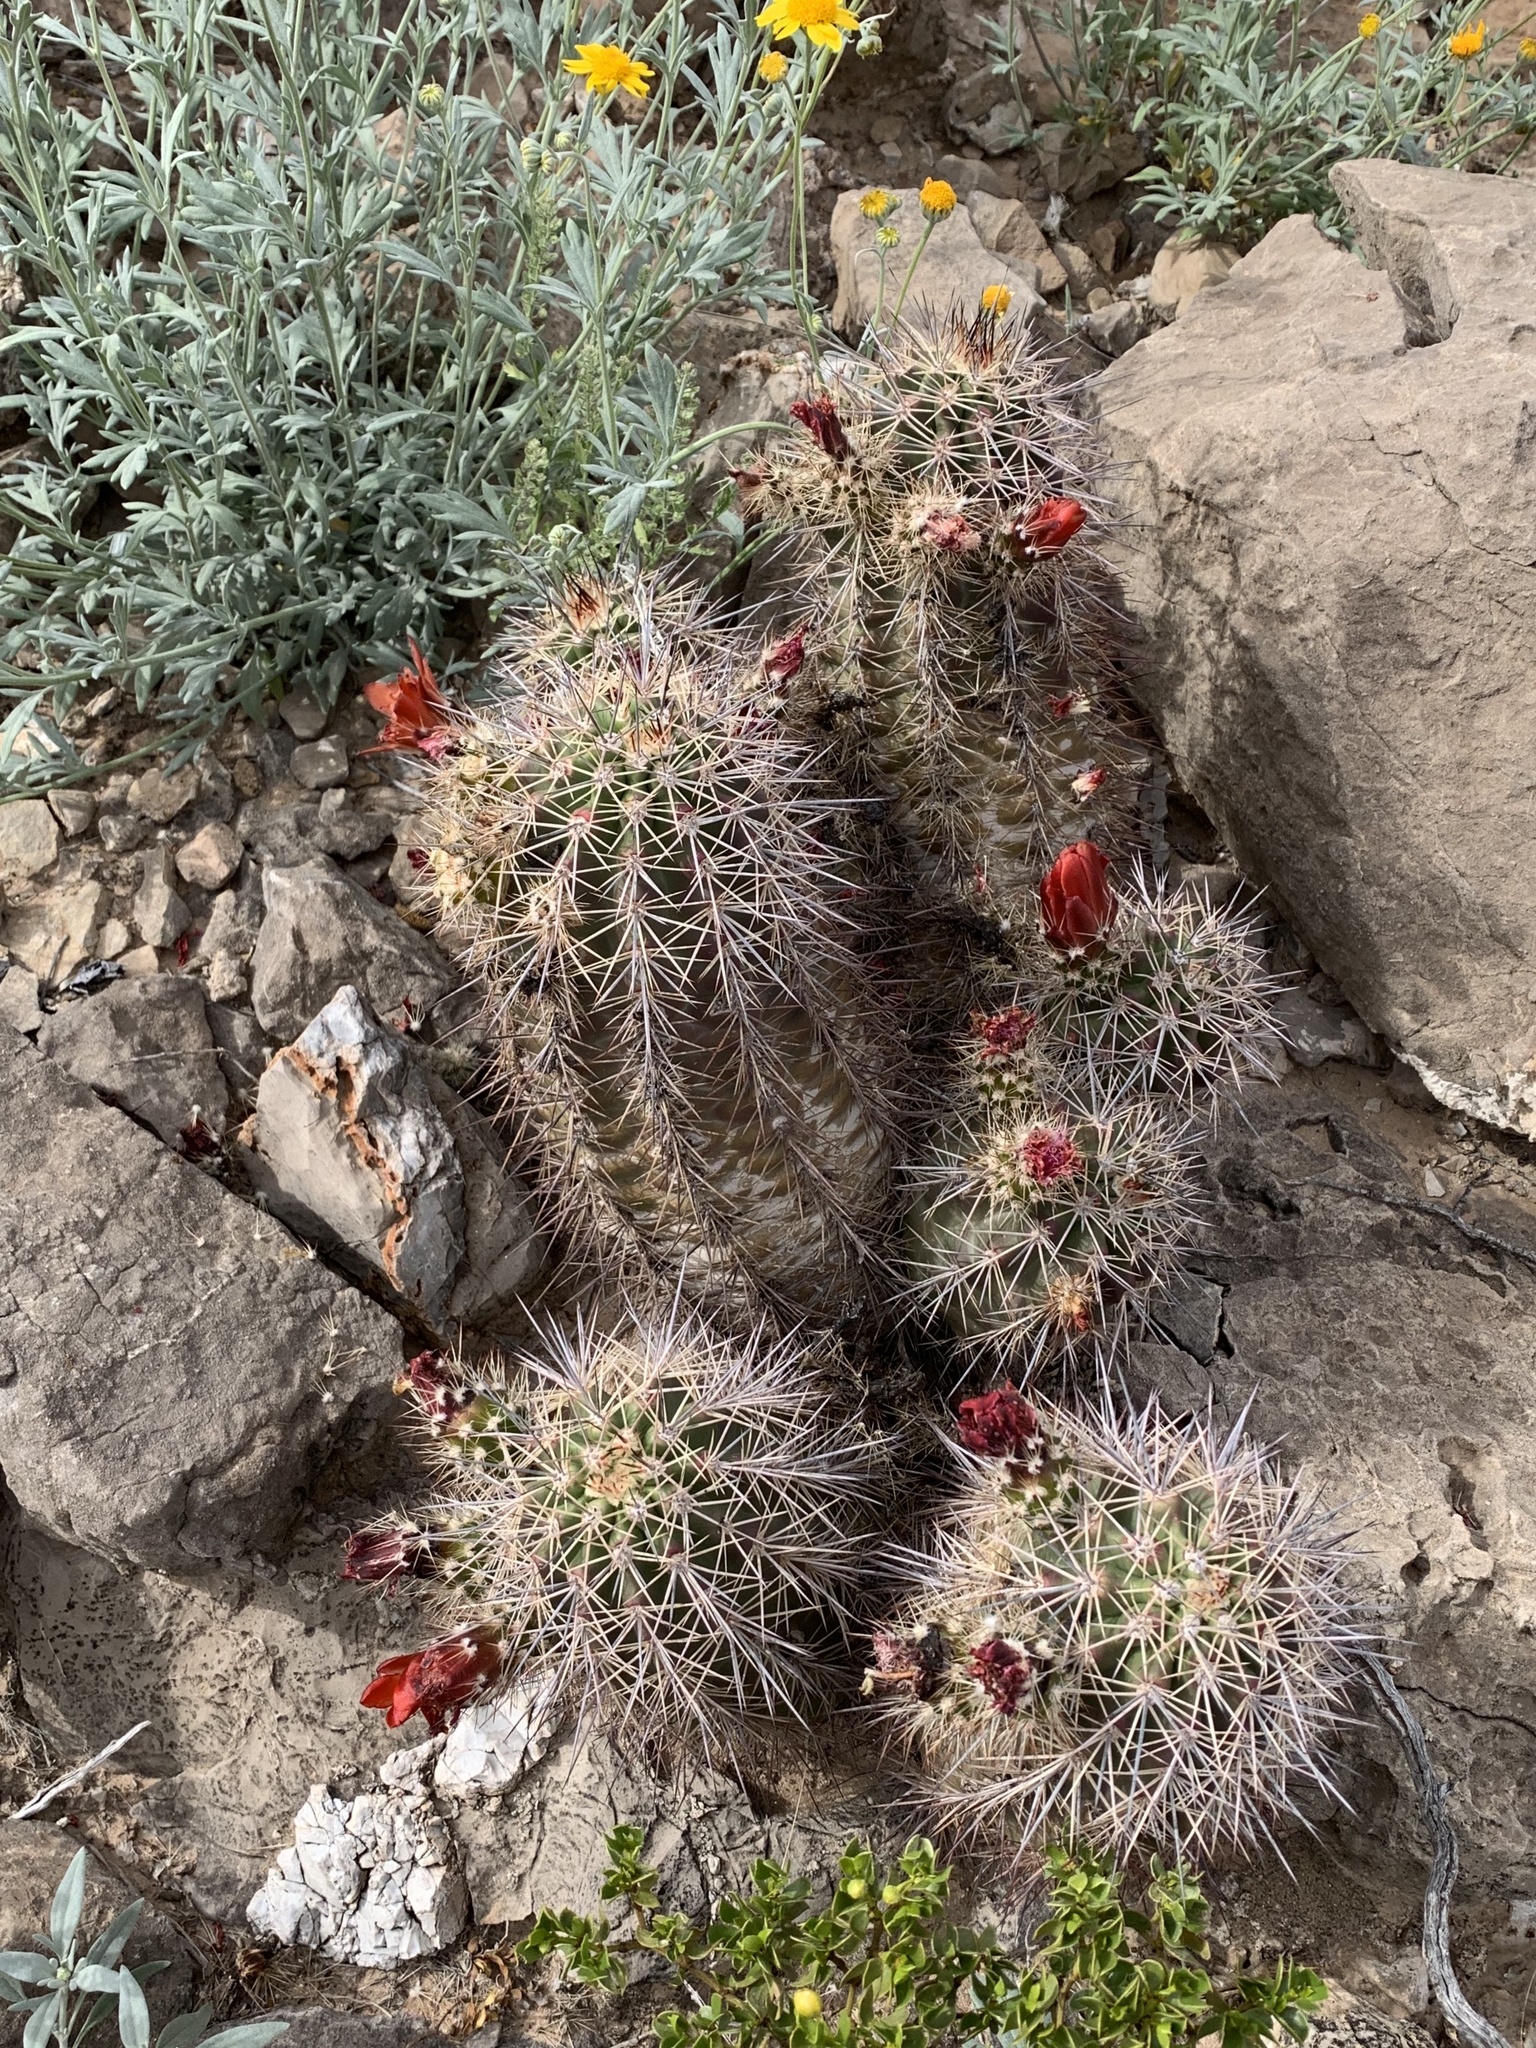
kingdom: Plantae
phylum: Tracheophyta
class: Magnoliopsida
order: Caryophyllales
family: Cactaceae
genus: Echinocereus
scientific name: Echinocereus coccineus
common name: Scarlet hedgehog cactus
